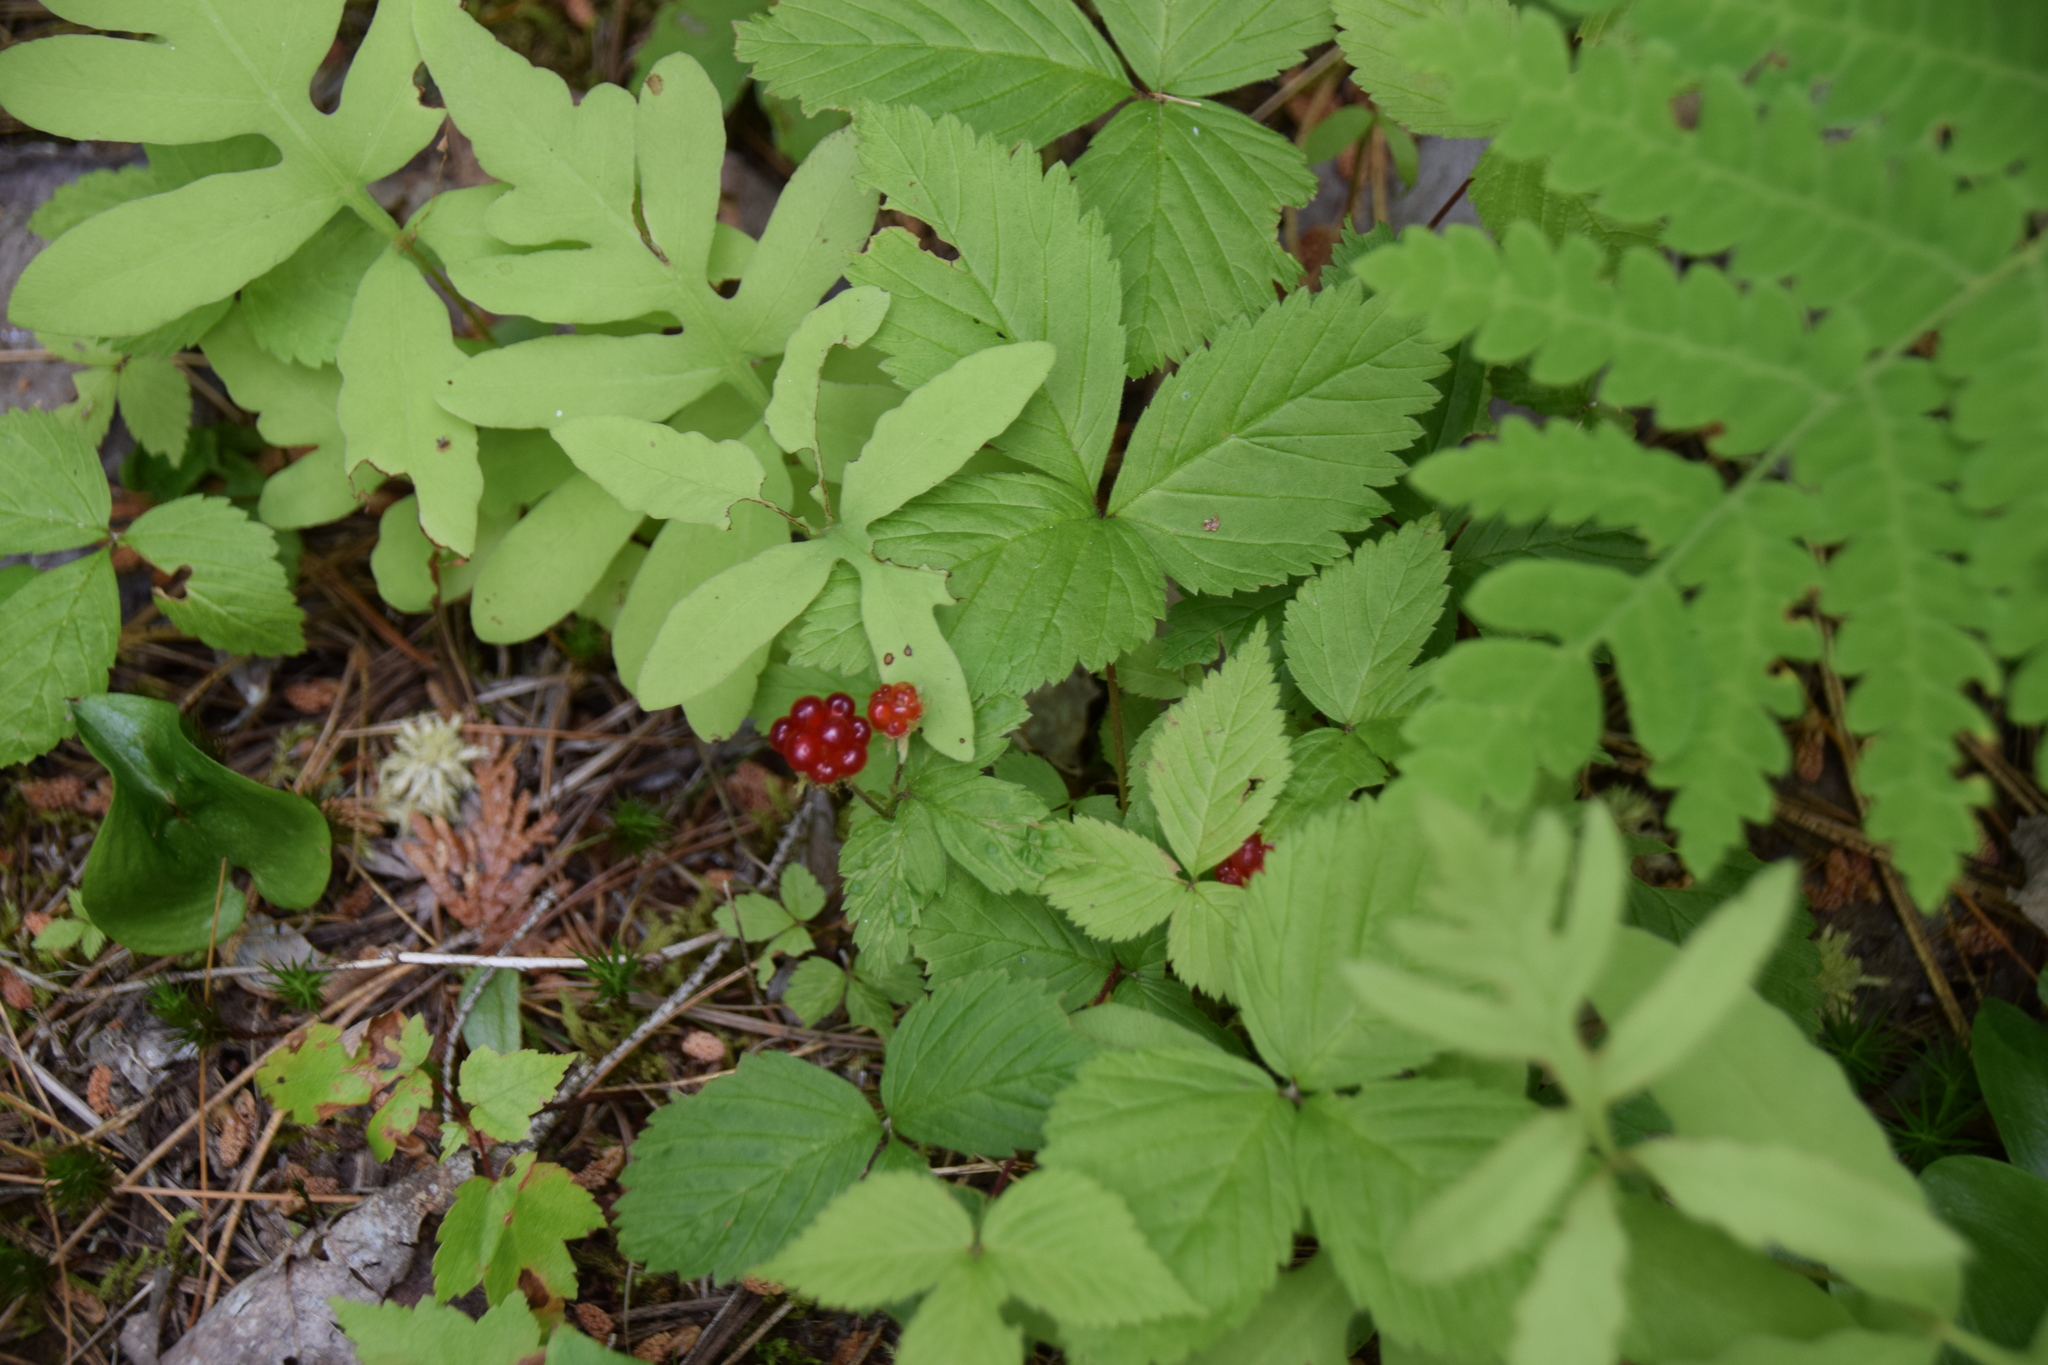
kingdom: Plantae
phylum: Tracheophyta
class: Magnoliopsida
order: Rosales
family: Rosaceae
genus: Rubus
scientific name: Rubus pubescens
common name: Dwarf raspberry
